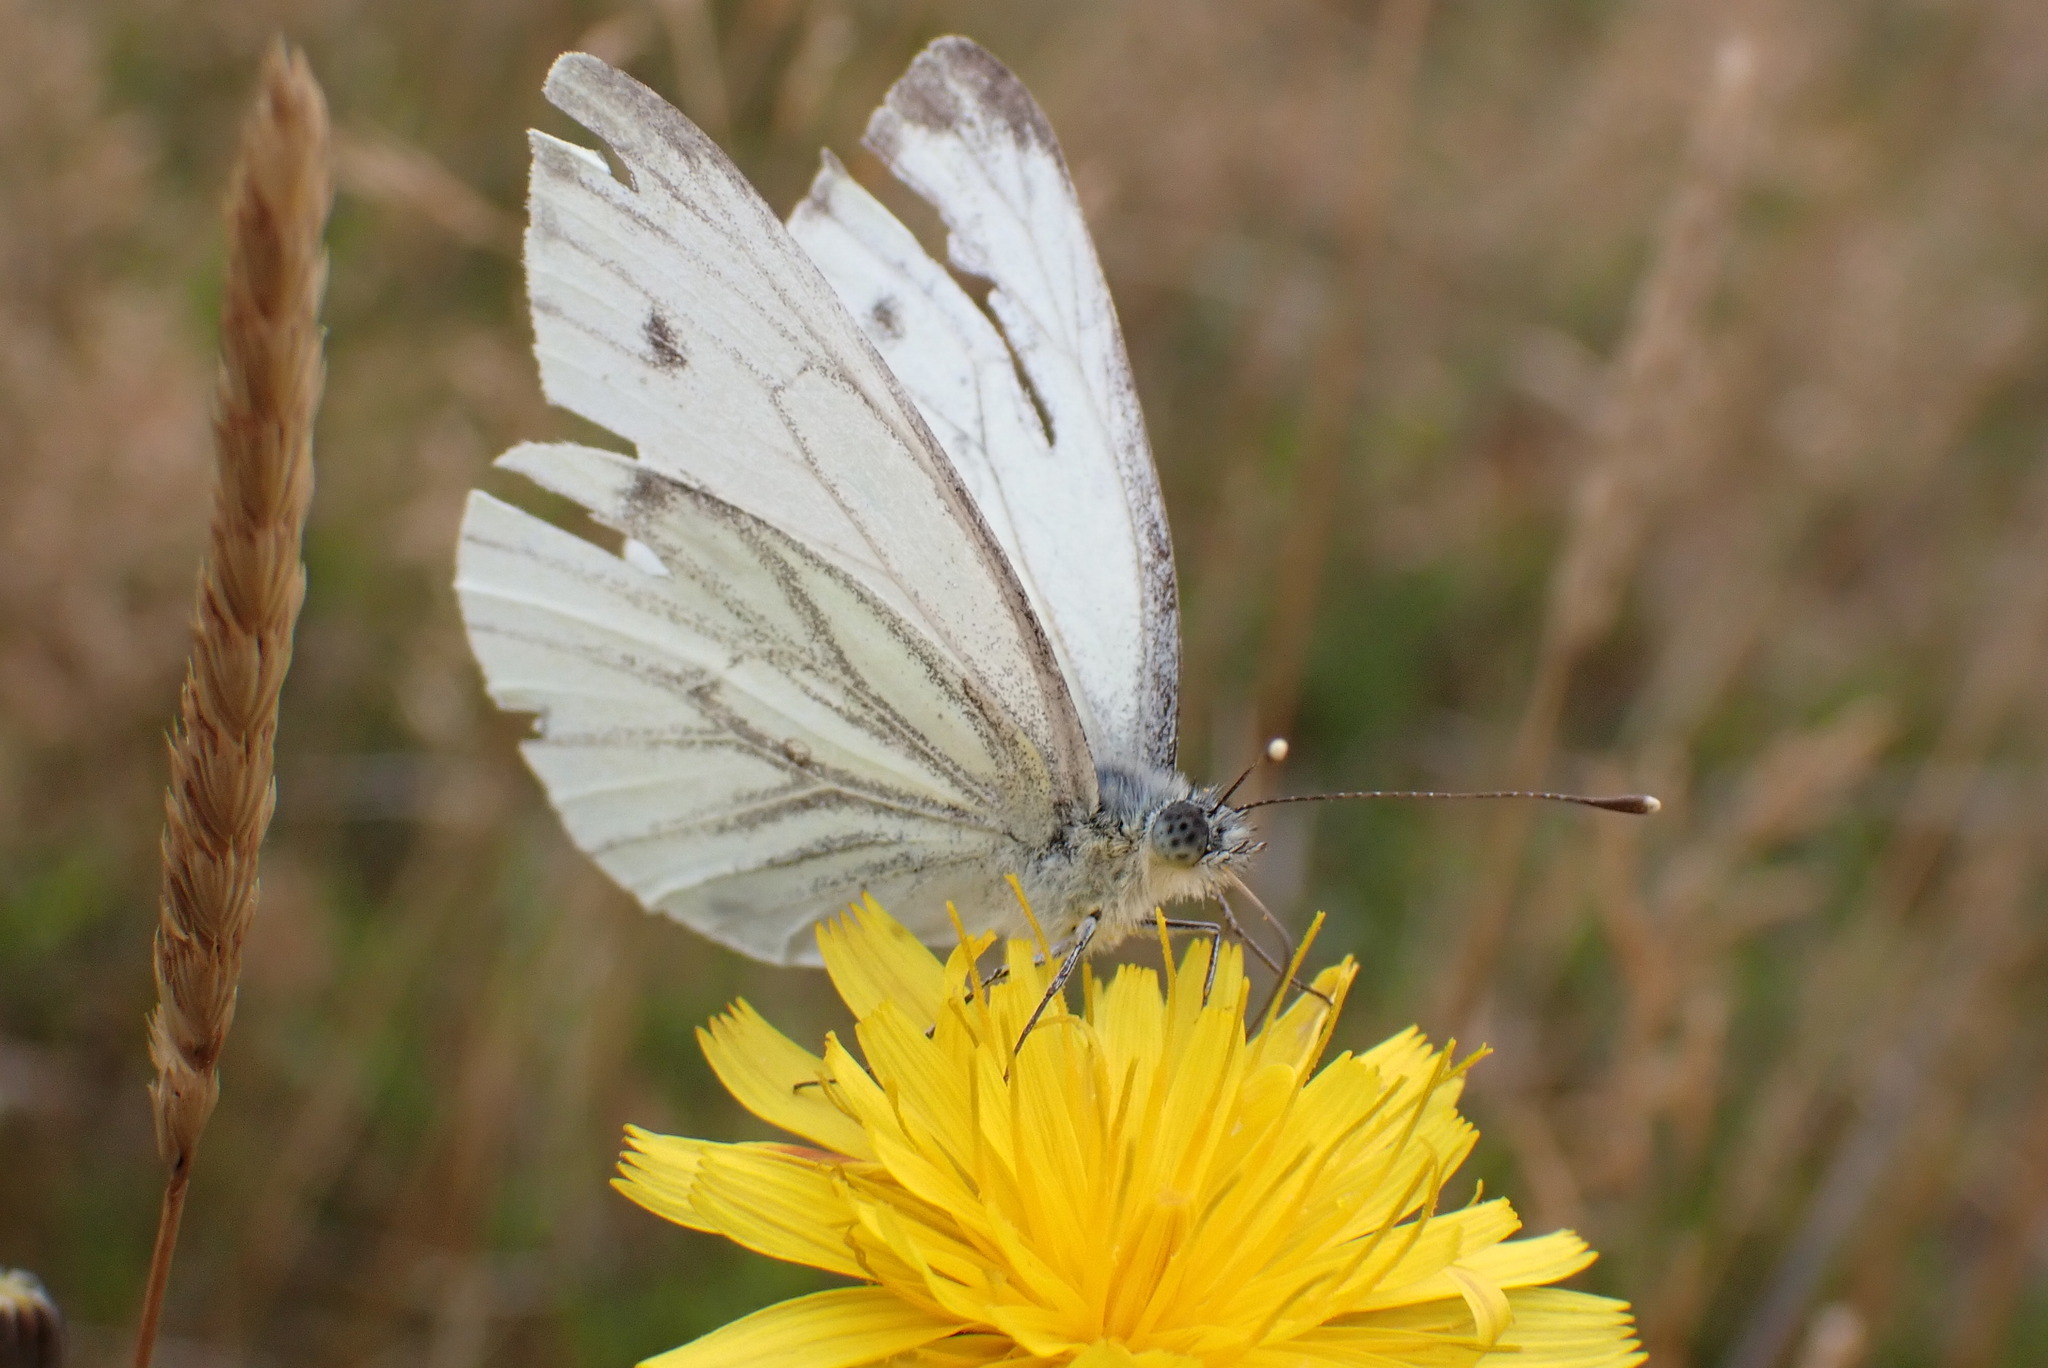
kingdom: Animalia
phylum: Arthropoda
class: Insecta
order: Lepidoptera
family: Pieridae
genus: Pieris
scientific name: Pieris napi
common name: Green-veined white
